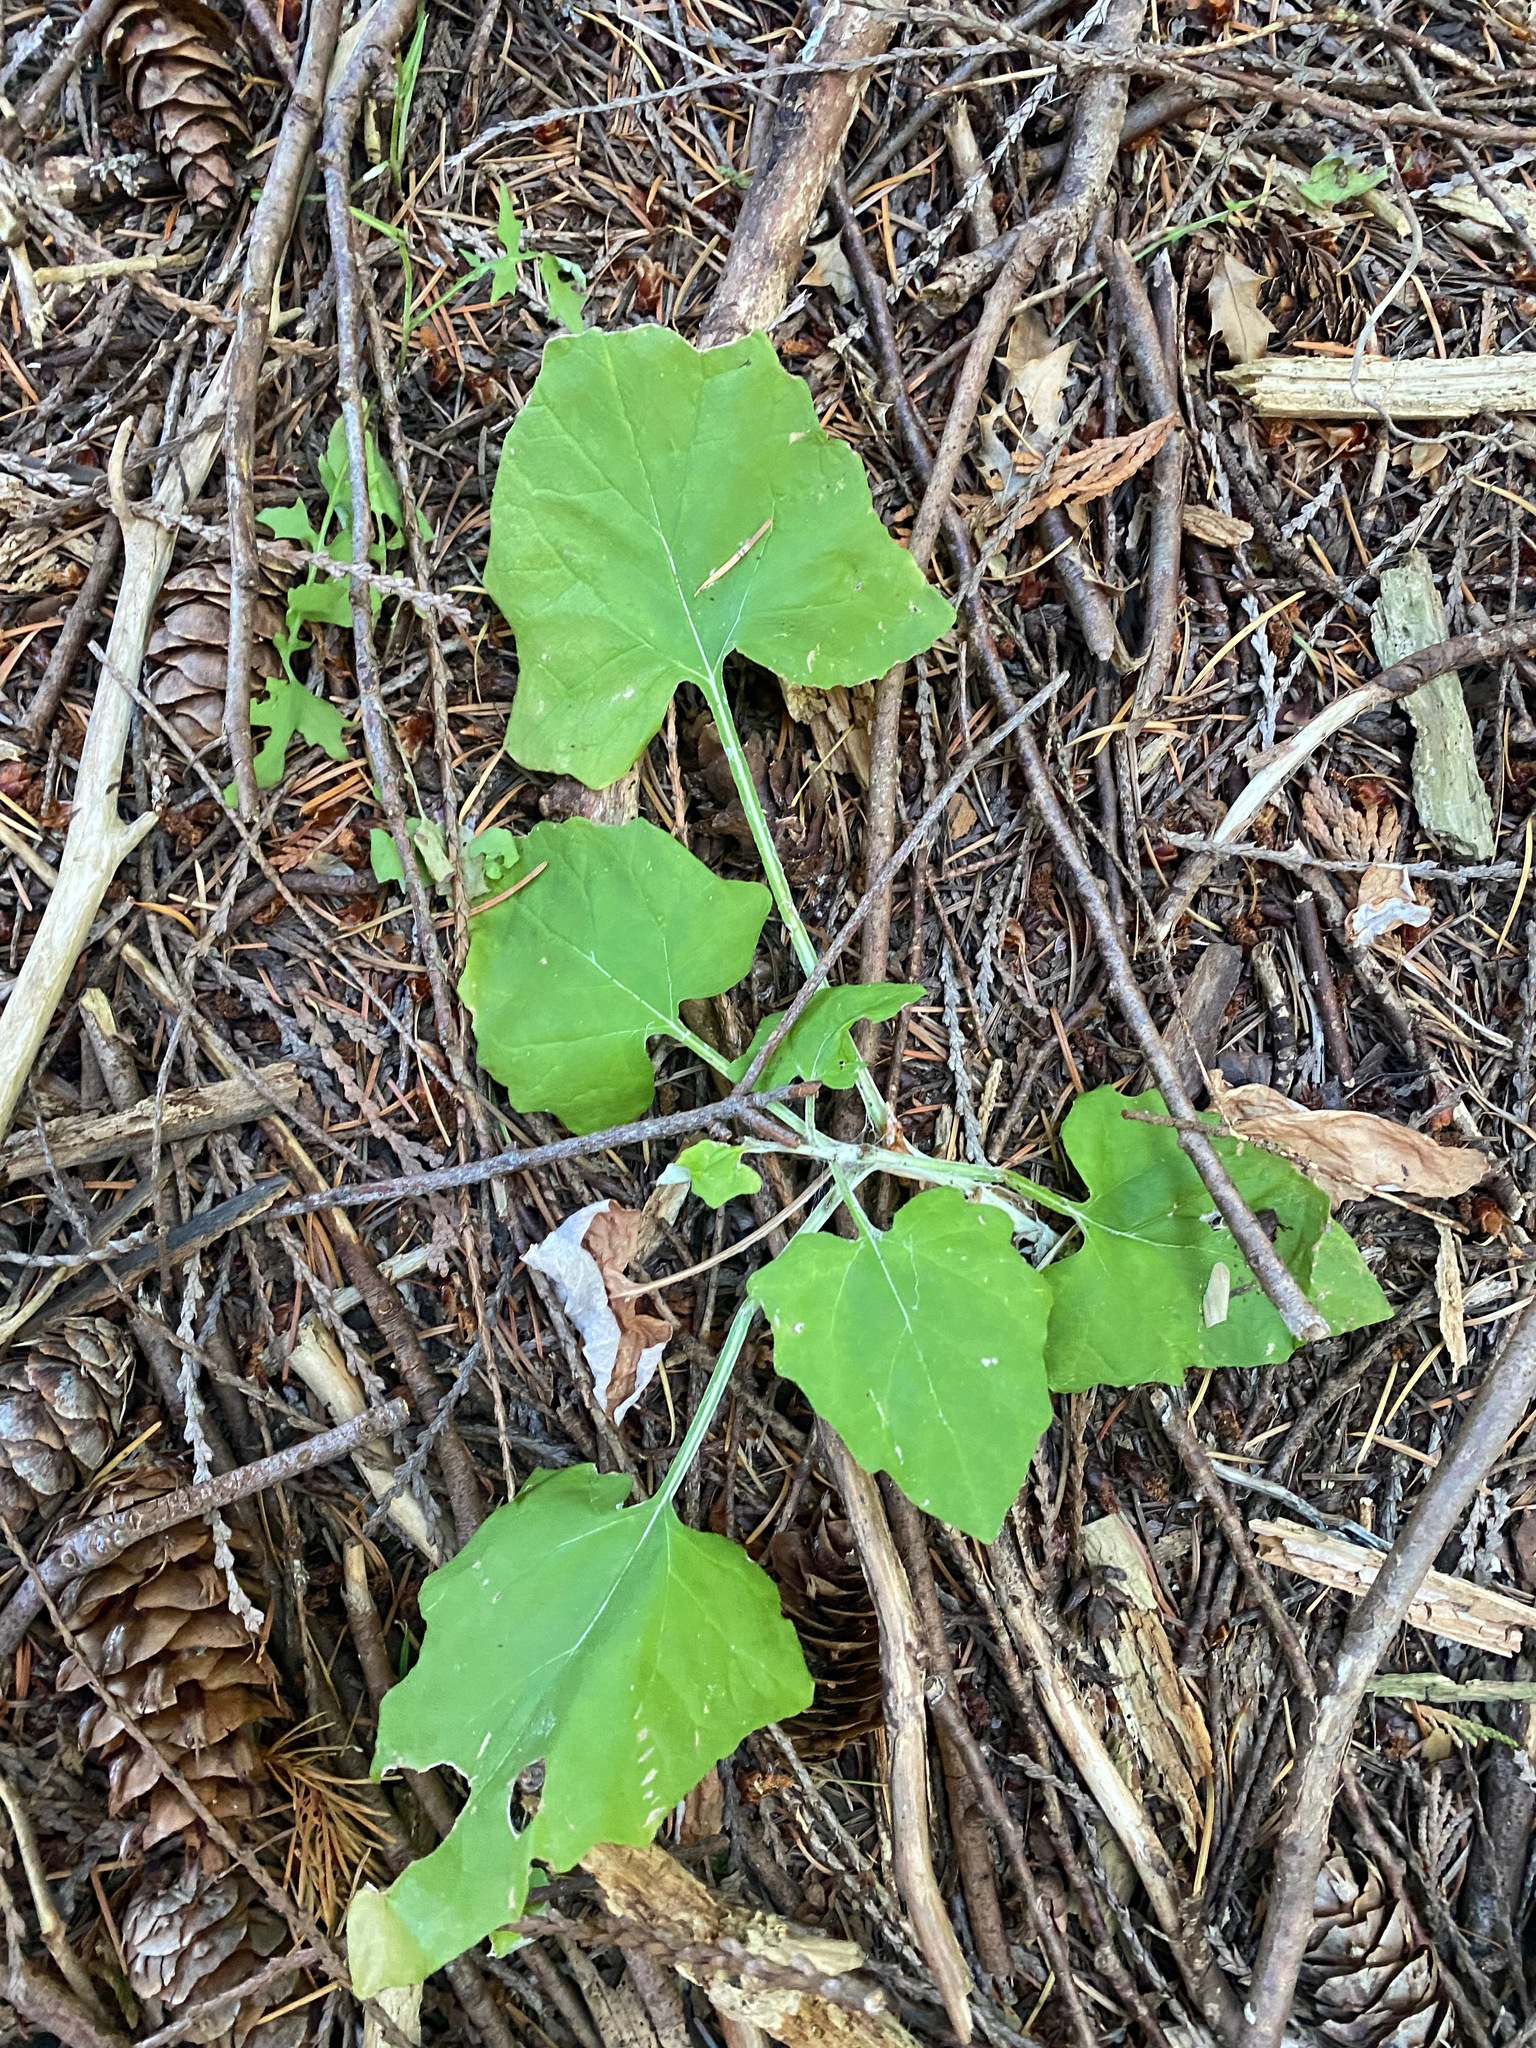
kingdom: Plantae
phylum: Tracheophyta
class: Magnoliopsida
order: Asterales
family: Asteraceae
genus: Adenocaulon
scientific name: Adenocaulon bicolor
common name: Trailplant
